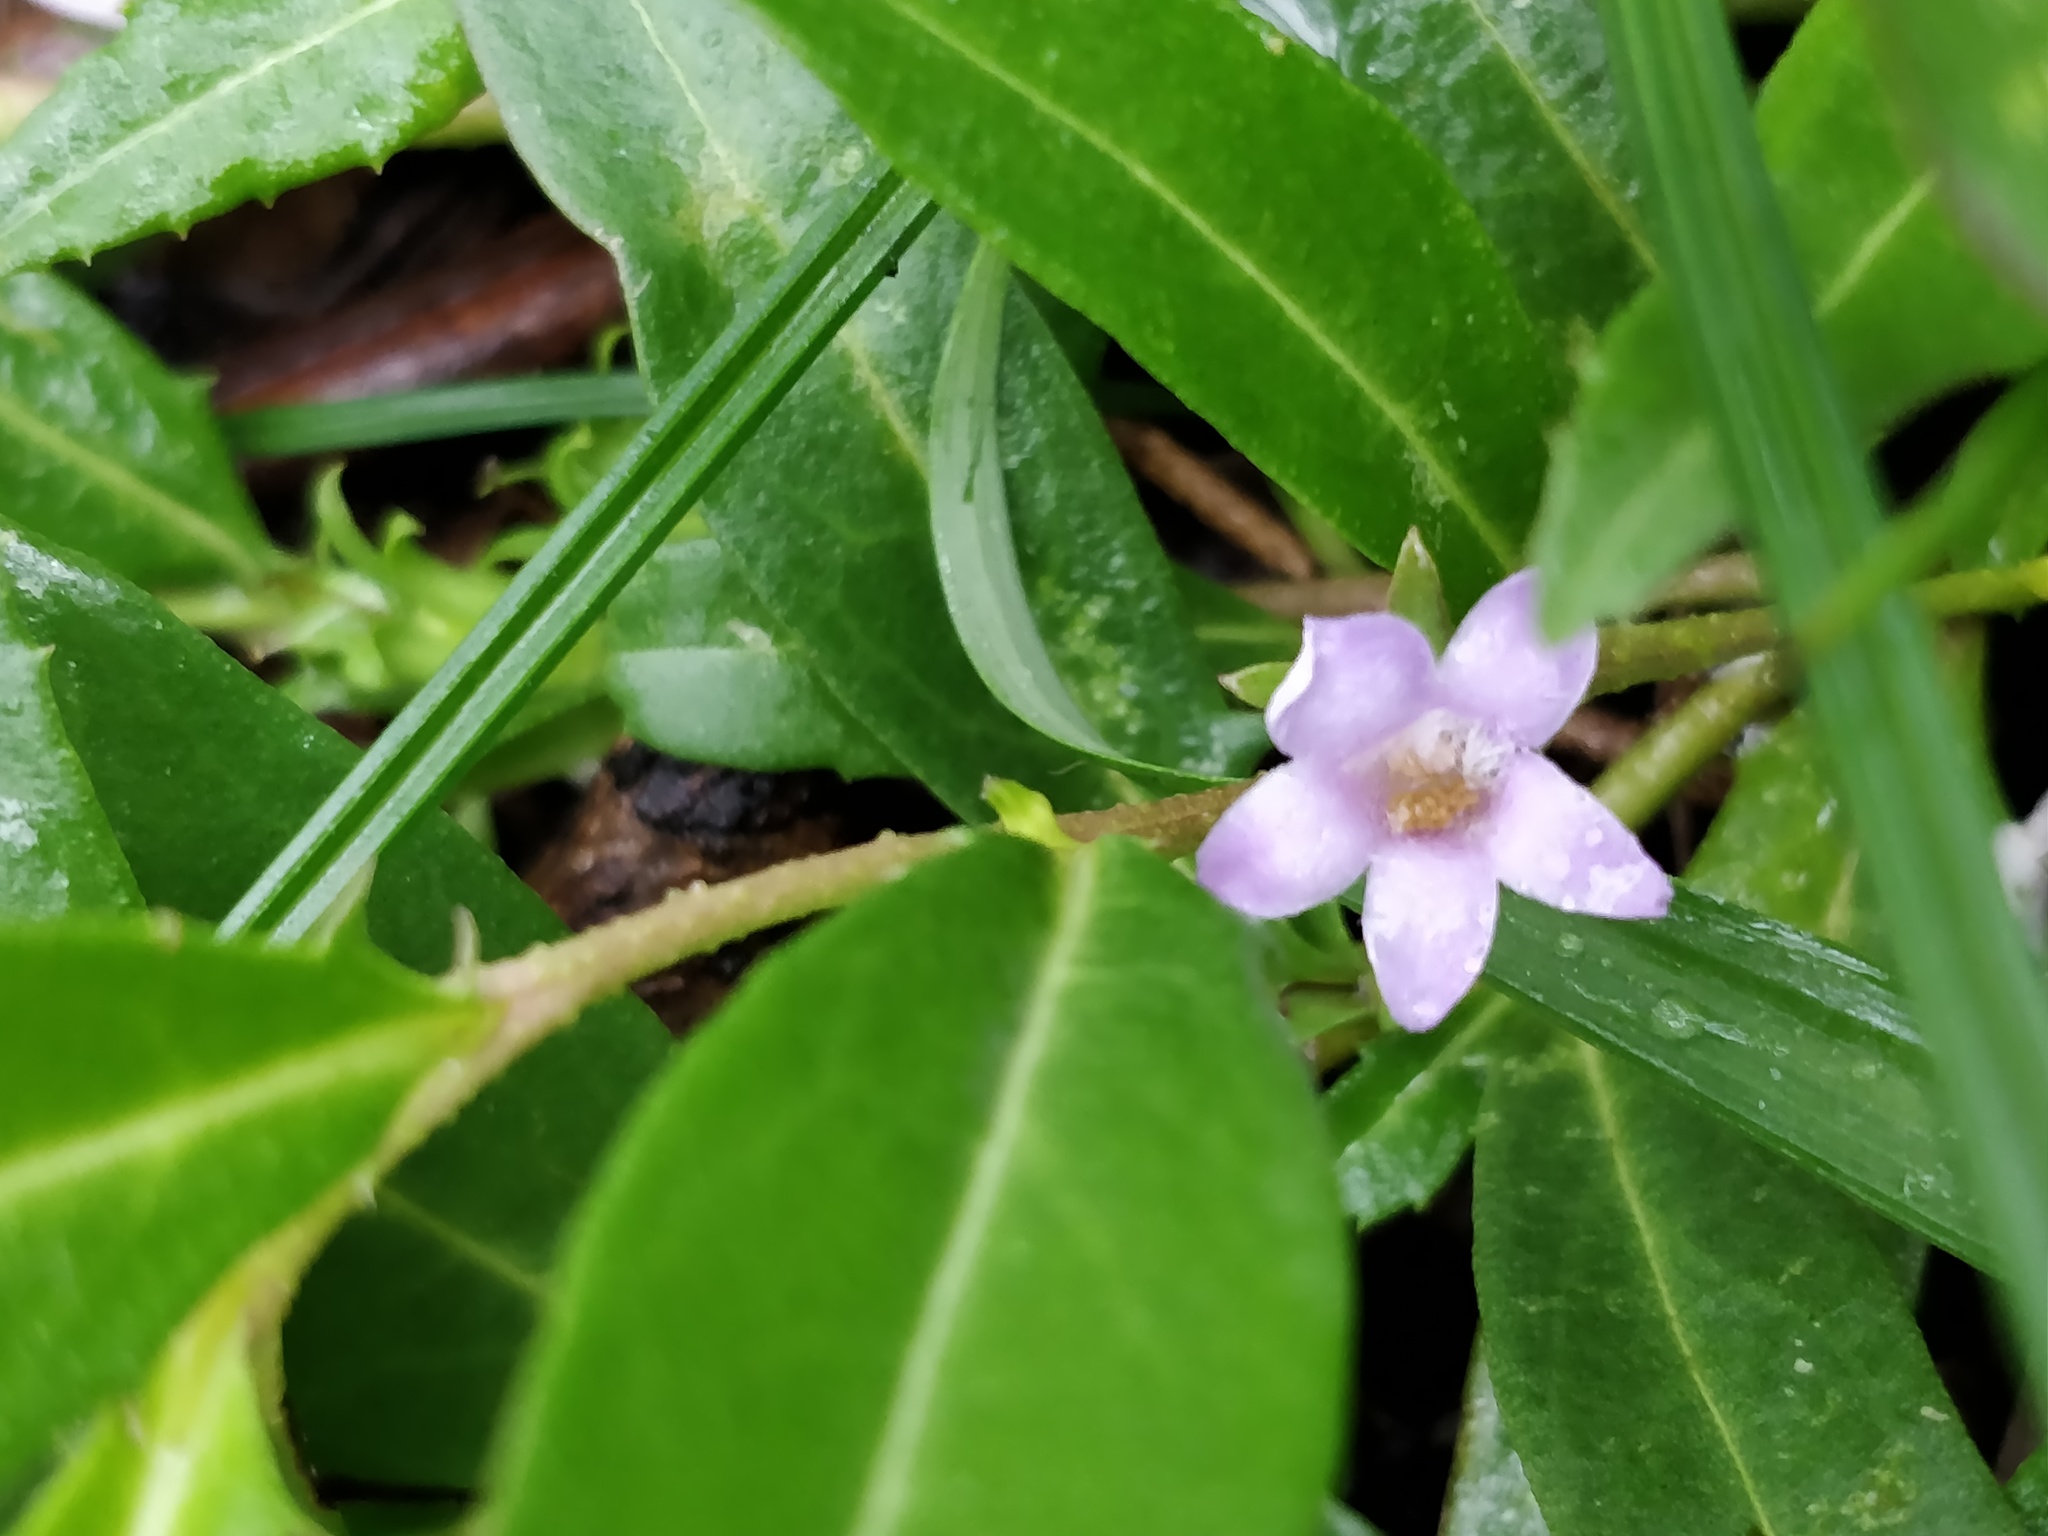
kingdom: Plantae
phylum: Tracheophyta
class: Magnoliopsida
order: Lamiales
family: Scrophulariaceae
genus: Eremophila
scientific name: Eremophila debilis
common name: Winter-apple
